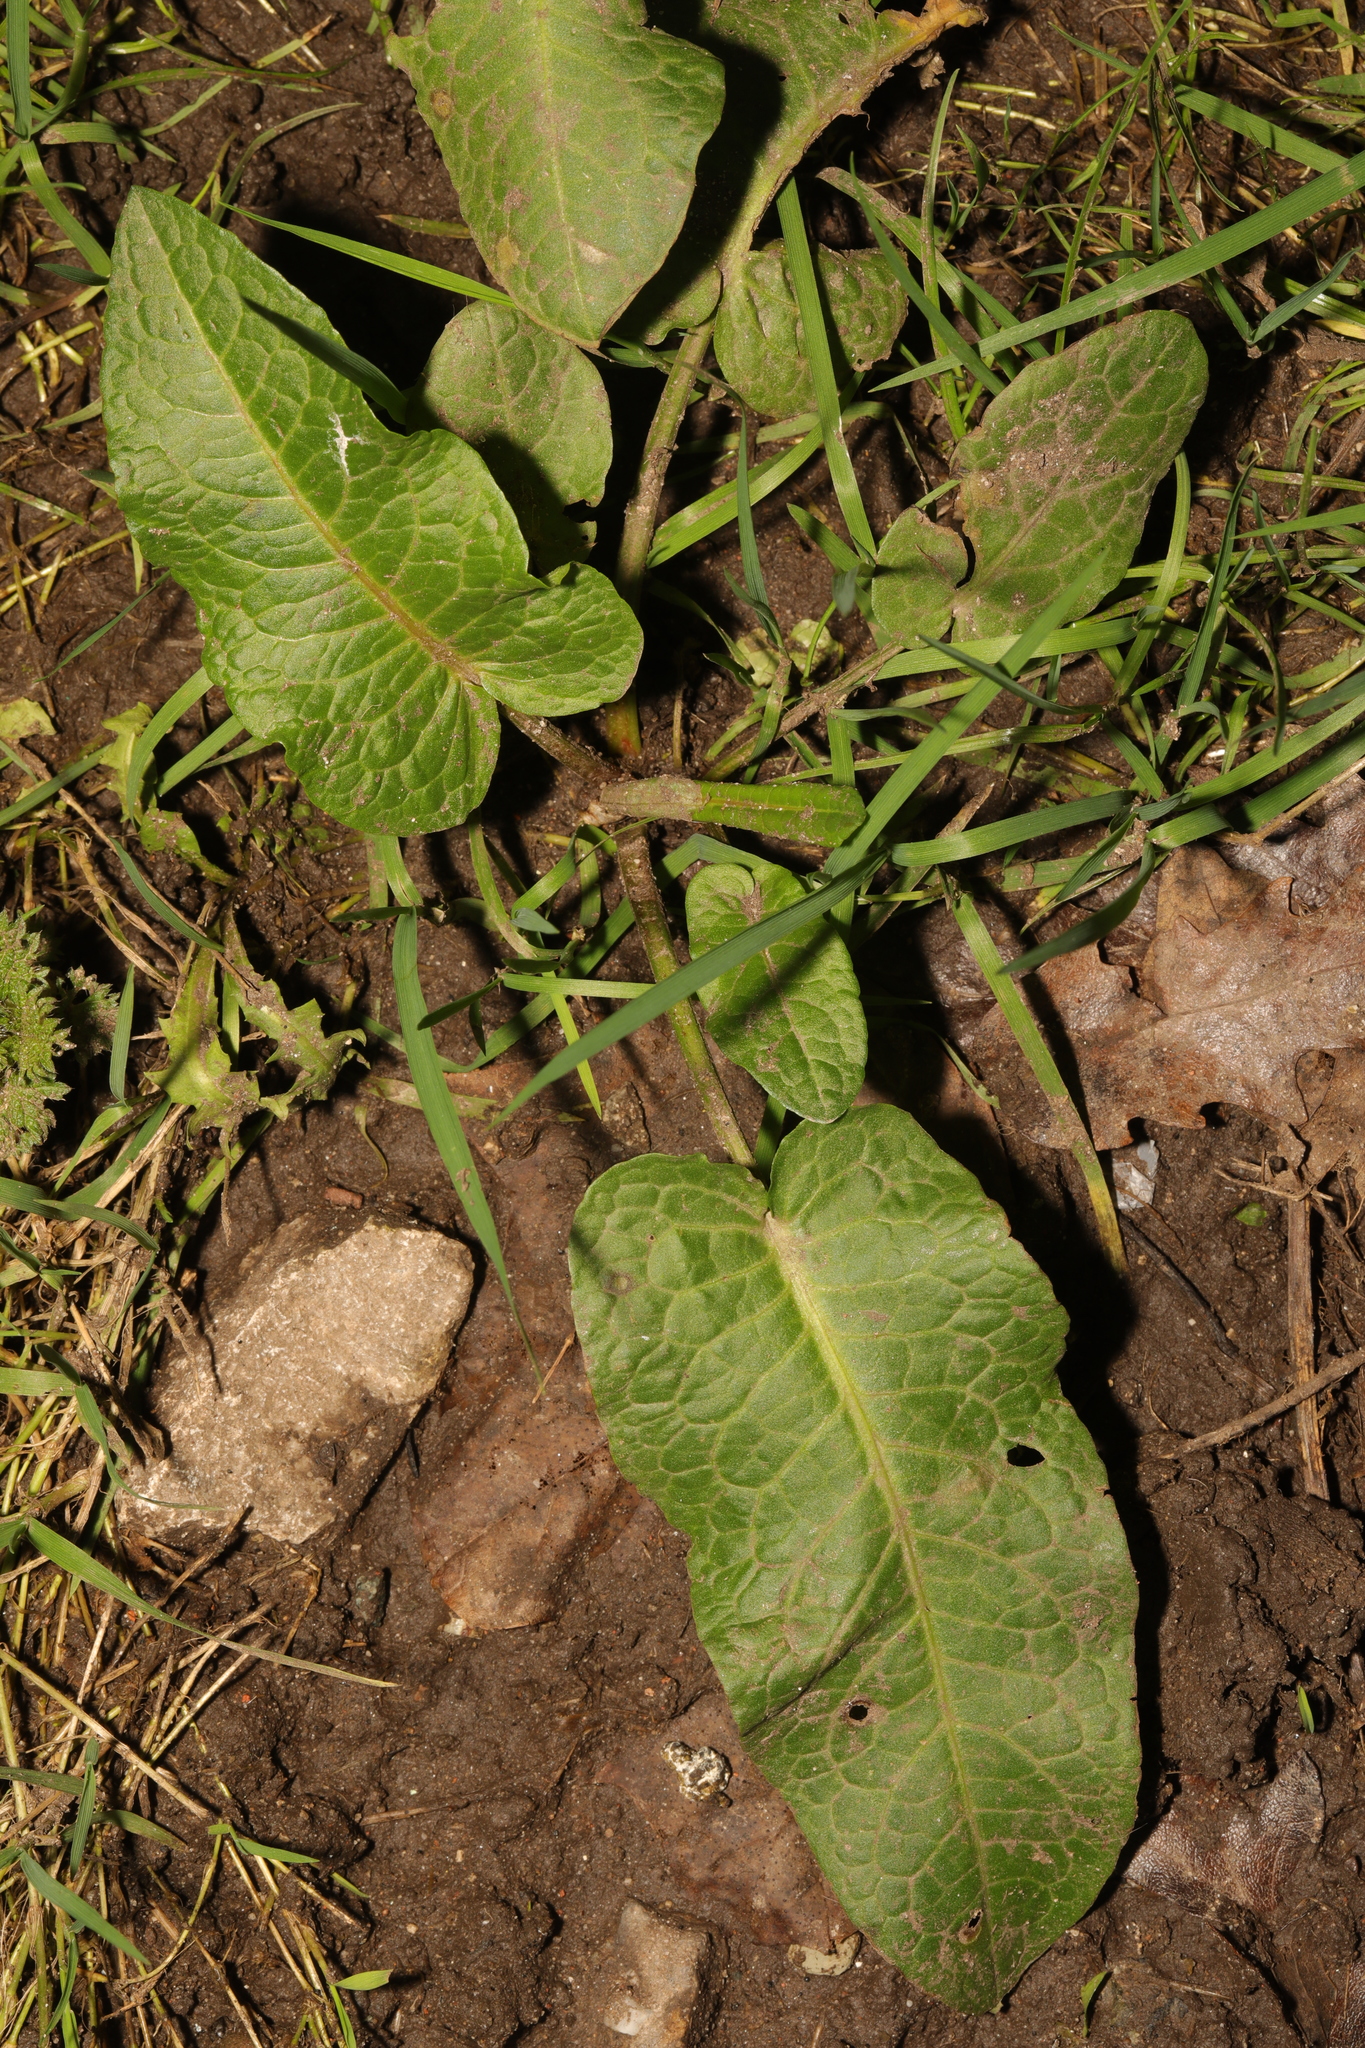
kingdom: Plantae
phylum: Tracheophyta
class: Magnoliopsida
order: Caryophyllales
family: Polygonaceae
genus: Rumex
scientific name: Rumex obtusifolius
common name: Bitter dock
